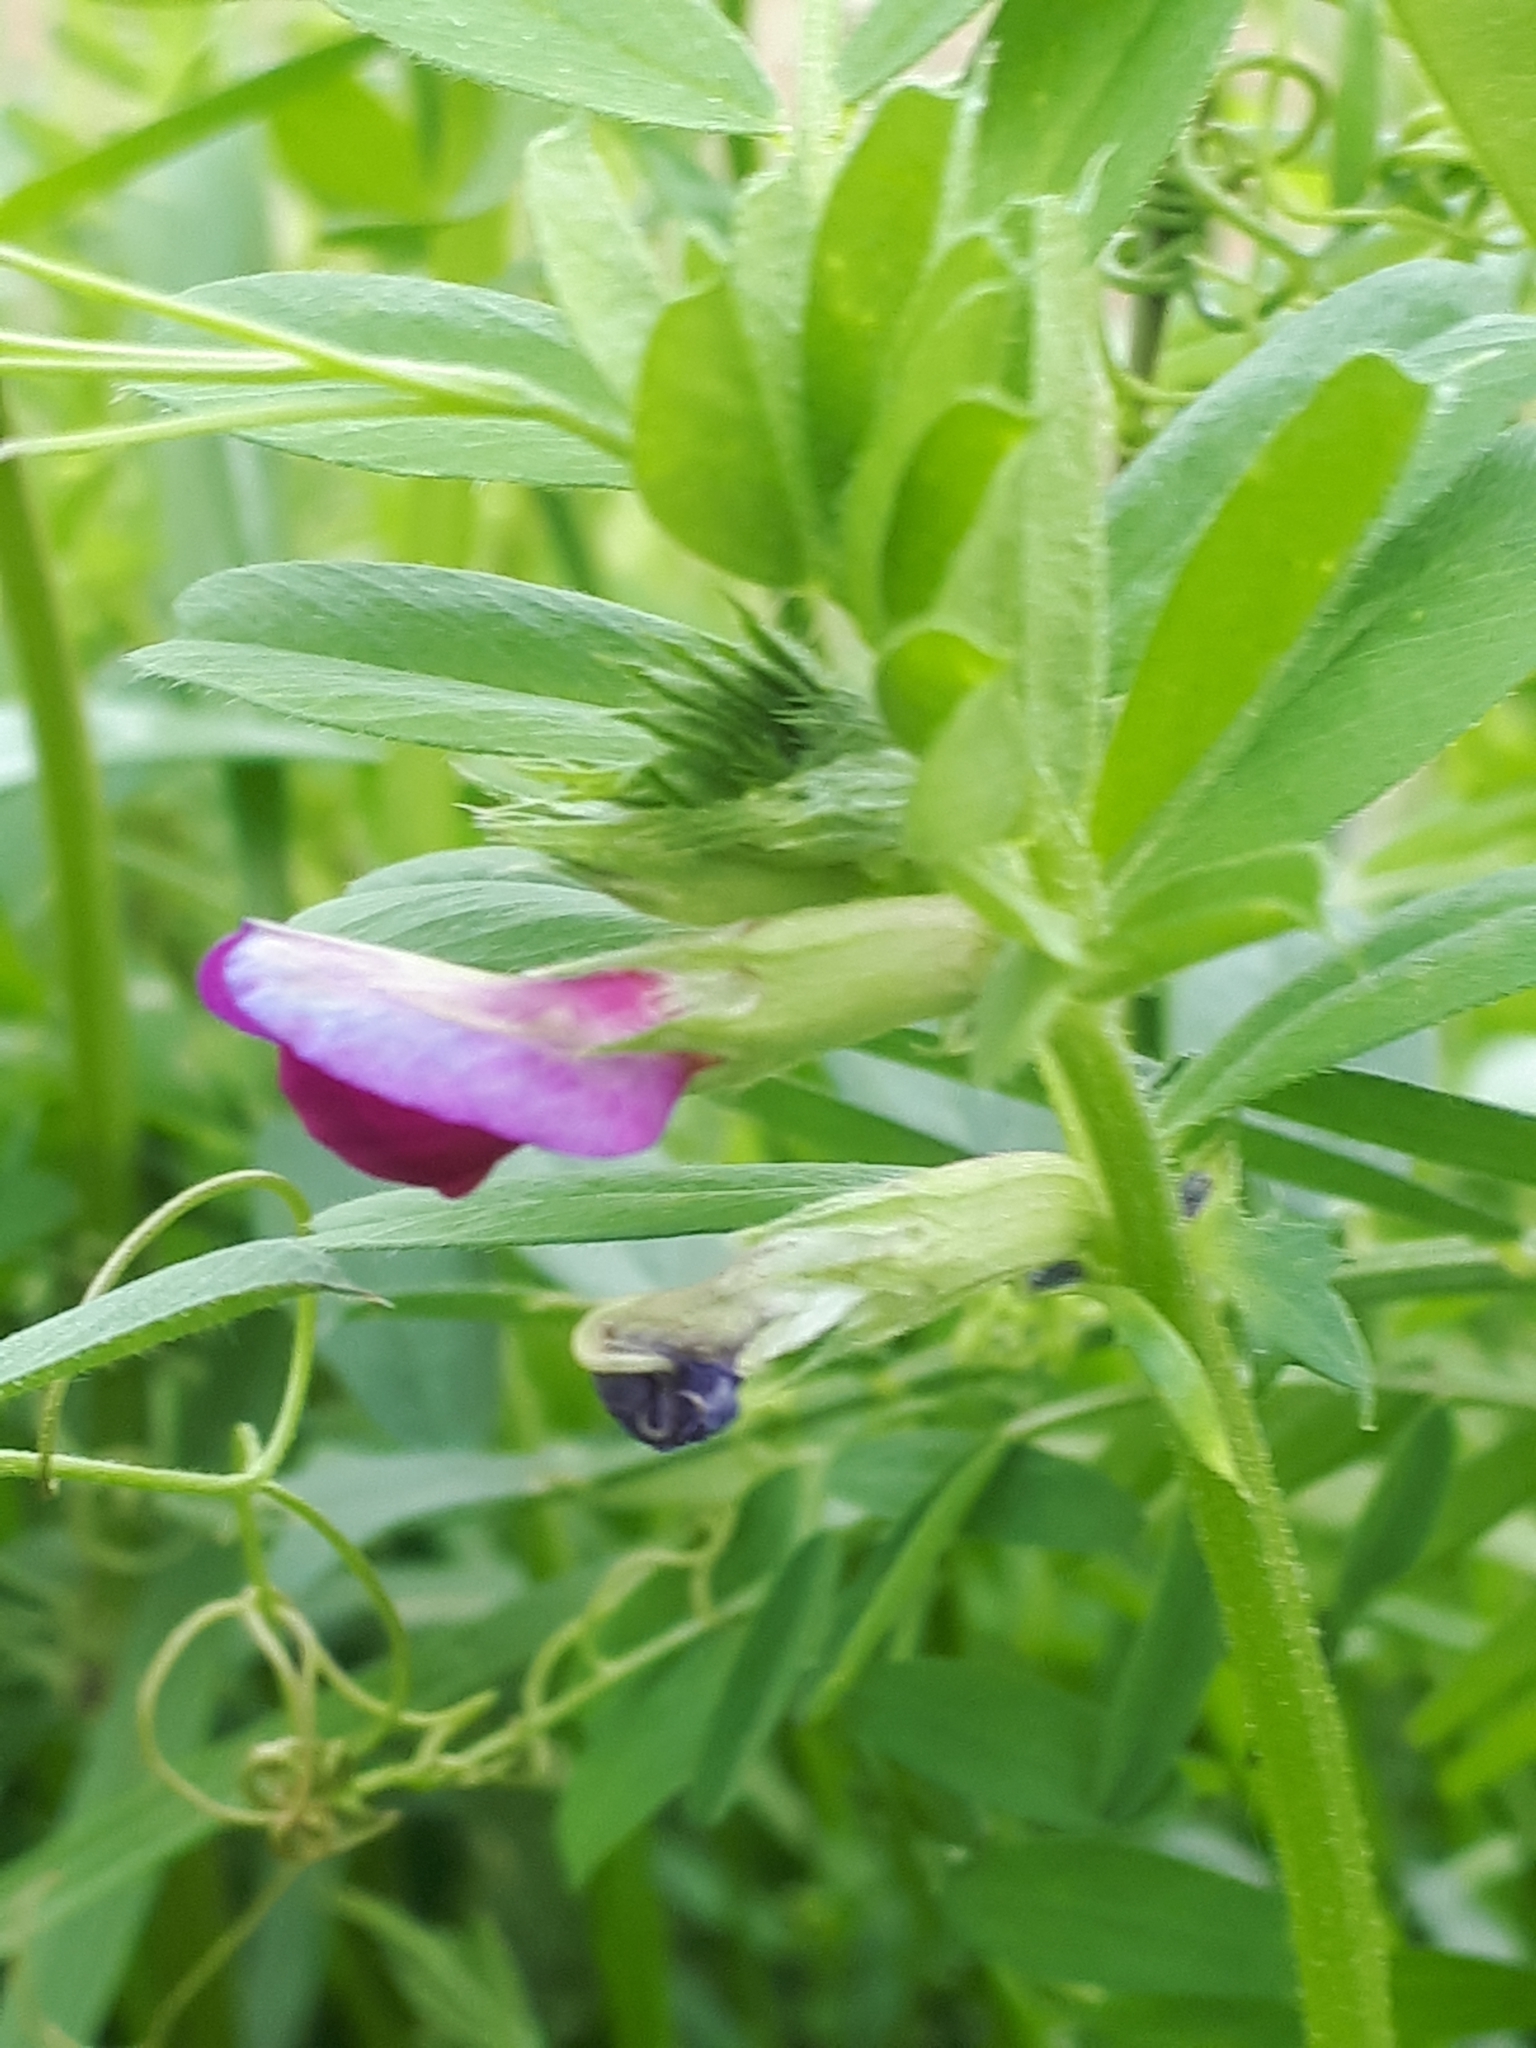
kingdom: Plantae
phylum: Tracheophyta
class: Magnoliopsida
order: Fabales
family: Fabaceae
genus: Vicia
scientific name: Vicia sativa
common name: Garden vetch
